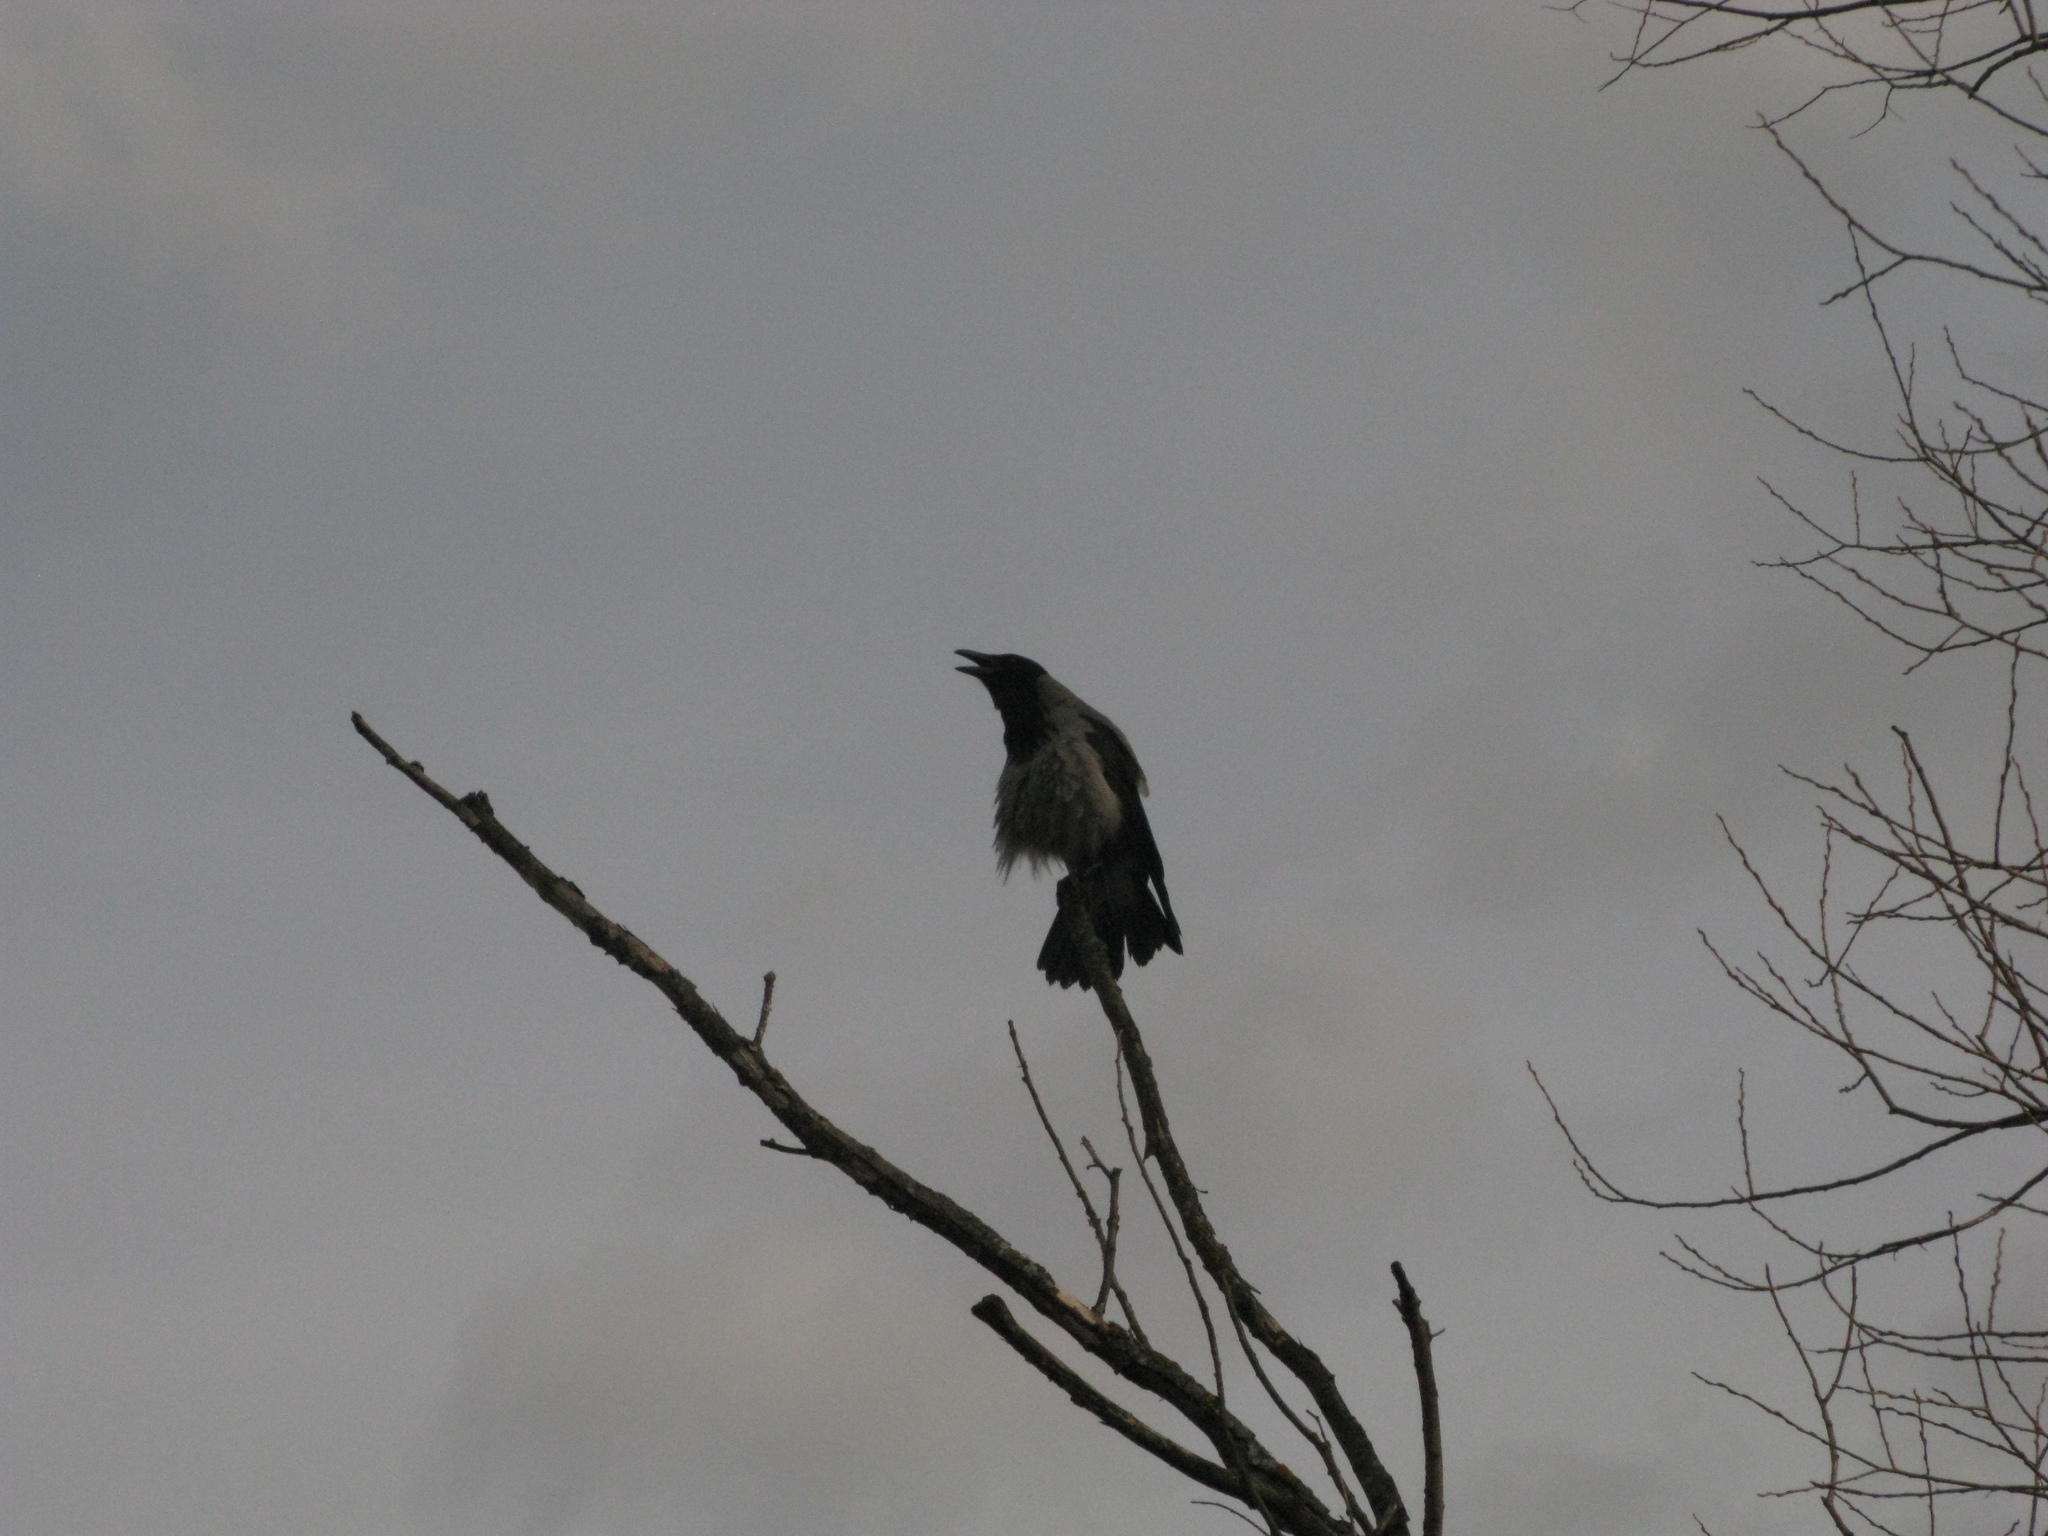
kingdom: Animalia
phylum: Chordata
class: Aves
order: Passeriformes
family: Corvidae
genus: Corvus
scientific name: Corvus cornix
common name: Hooded crow
